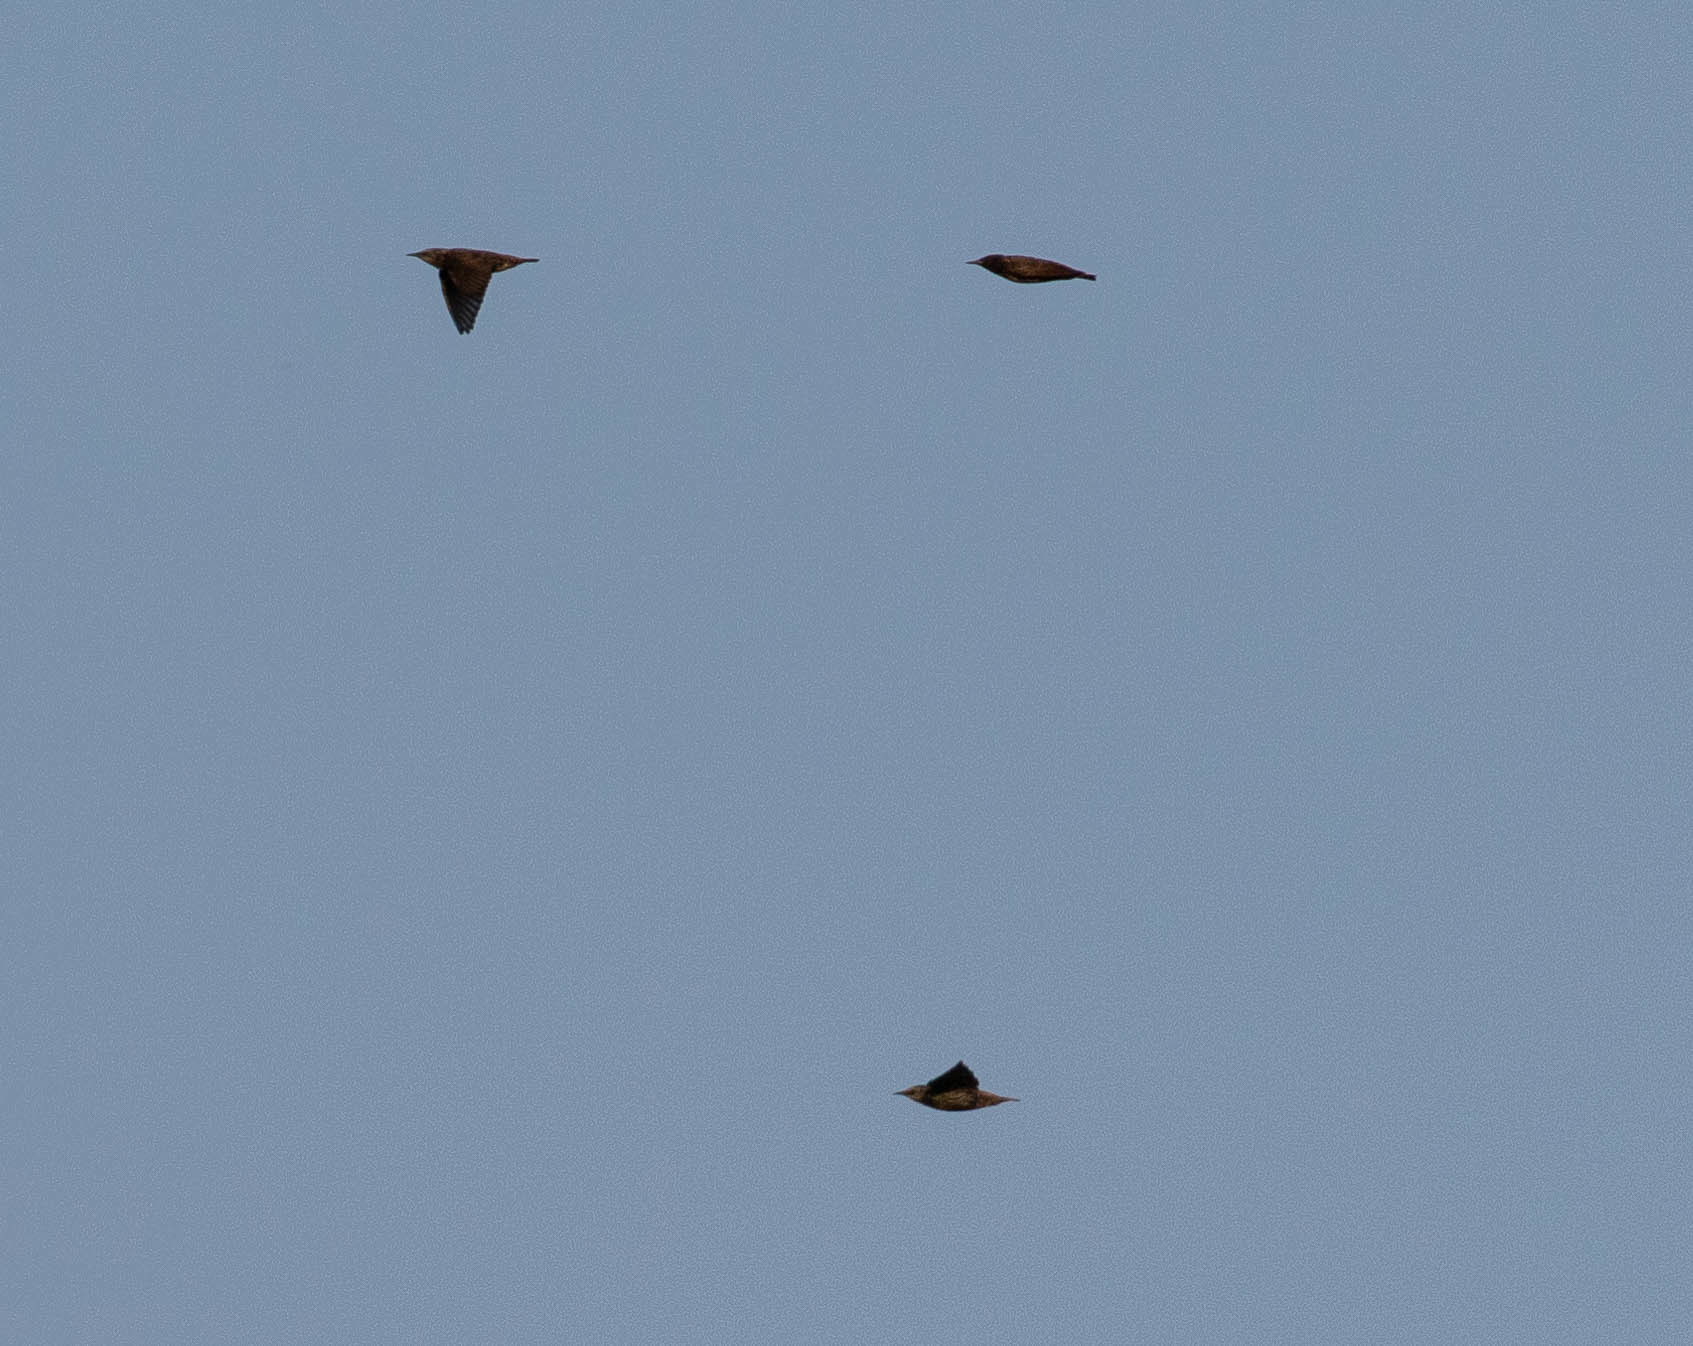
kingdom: Animalia
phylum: Chordata
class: Aves
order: Passeriformes
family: Sturnidae
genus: Sturnus
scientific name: Sturnus vulgaris
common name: Common starling
